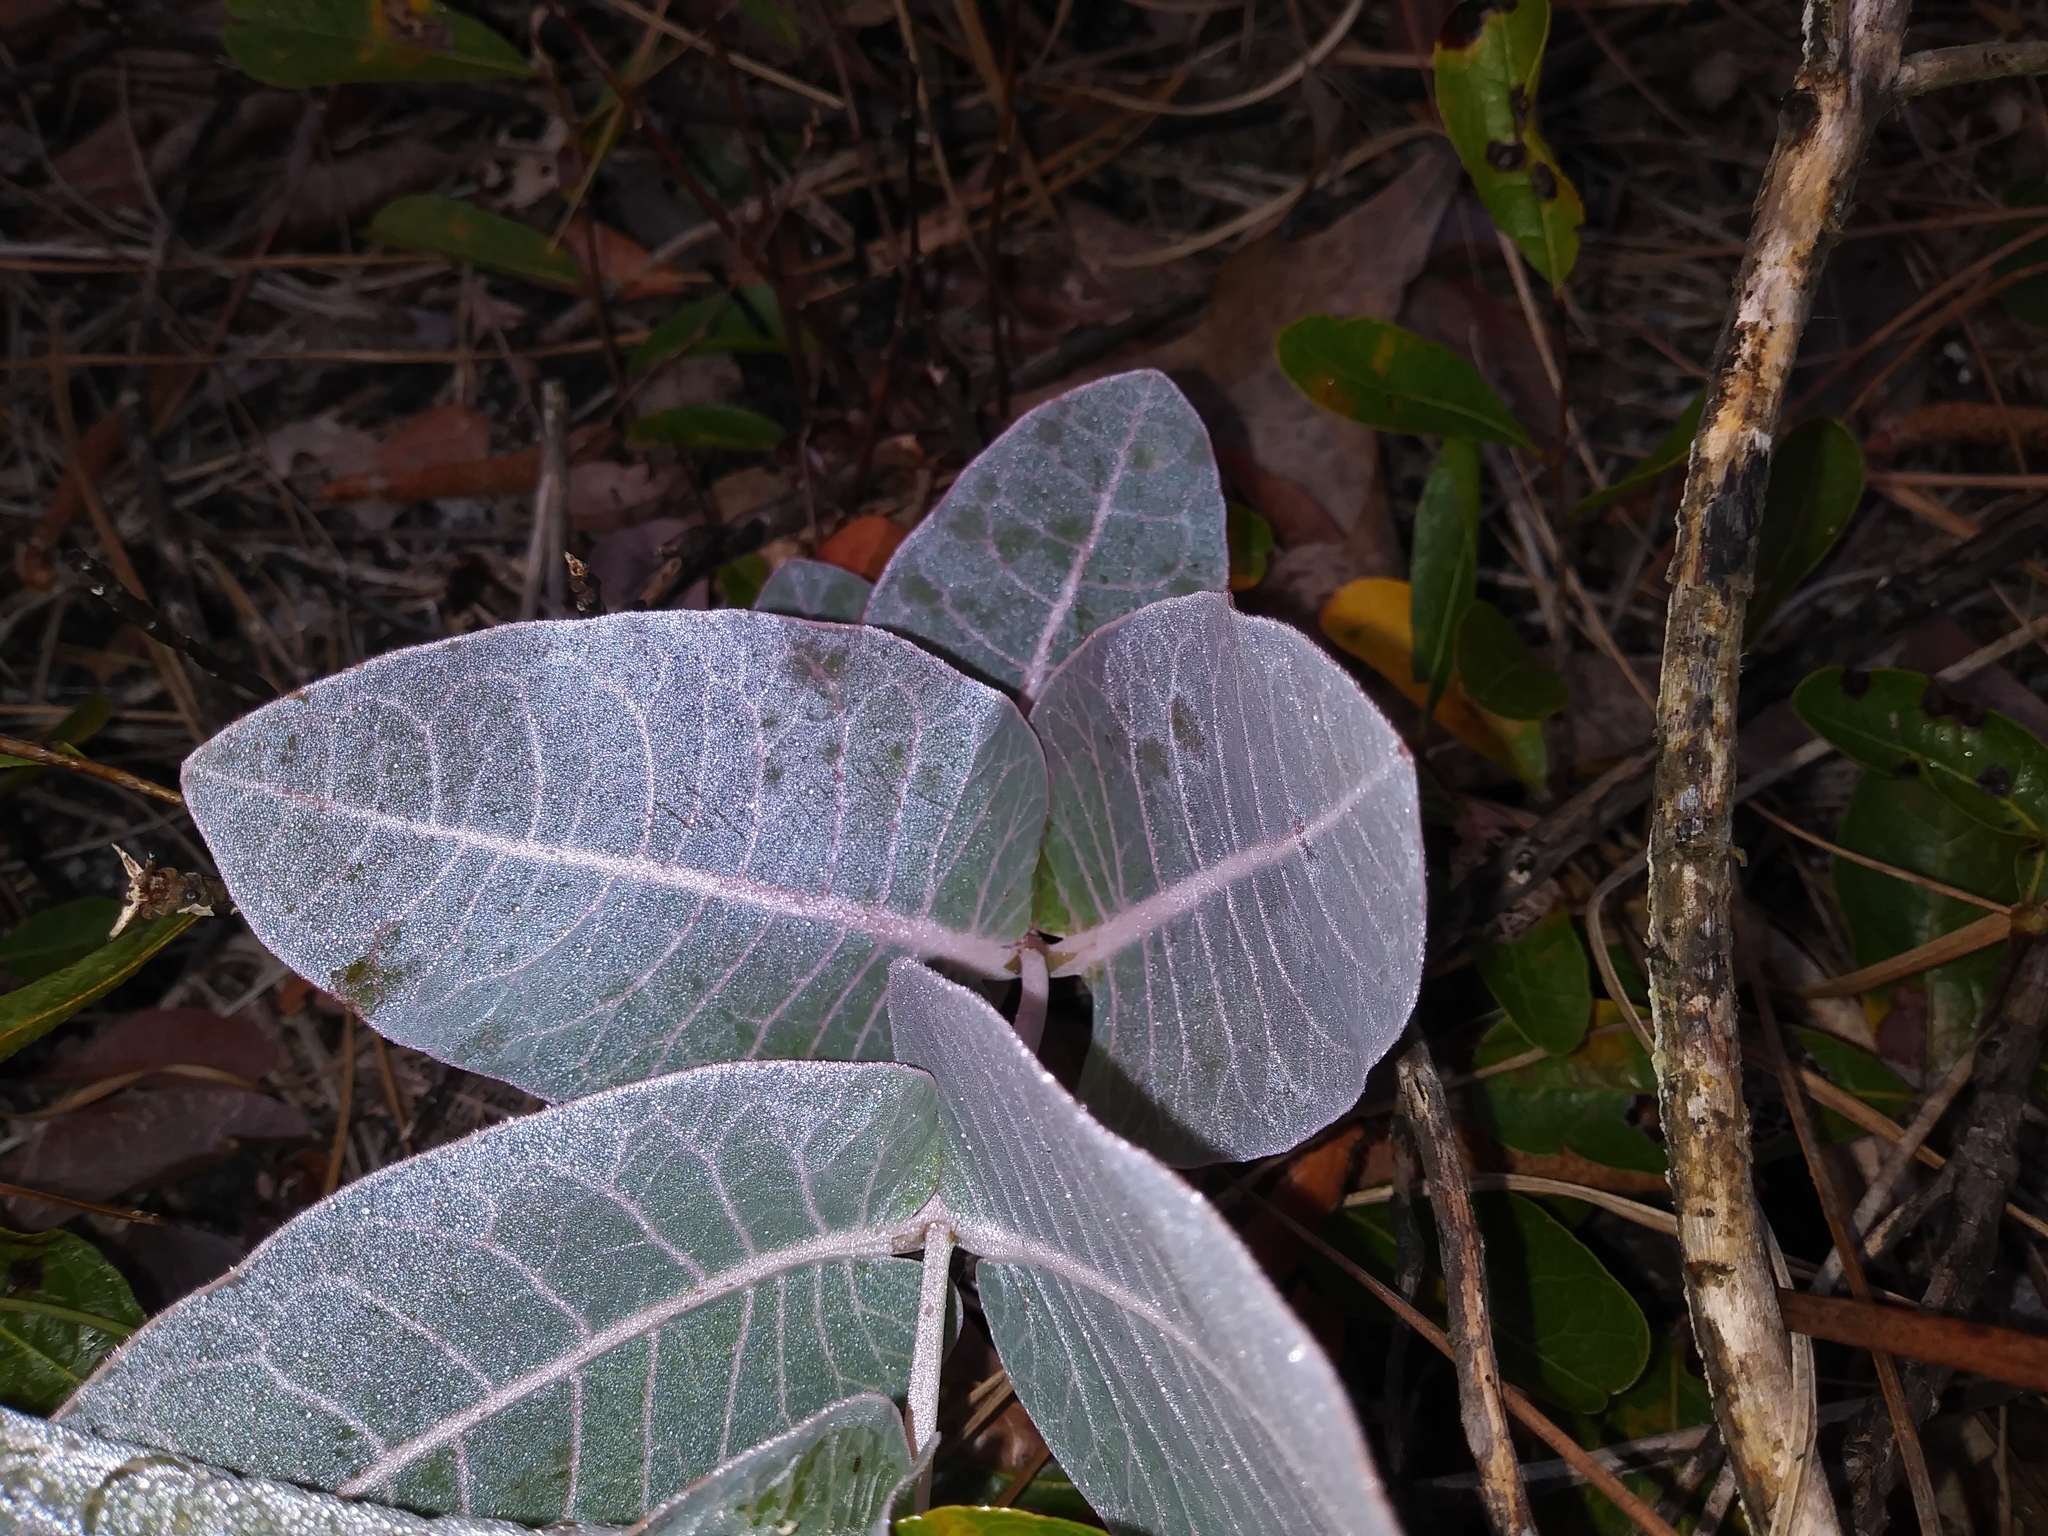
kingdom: Plantae
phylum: Tracheophyta
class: Magnoliopsida
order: Gentianales
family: Apocynaceae
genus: Asclepias
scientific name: Asclepias humistrata
